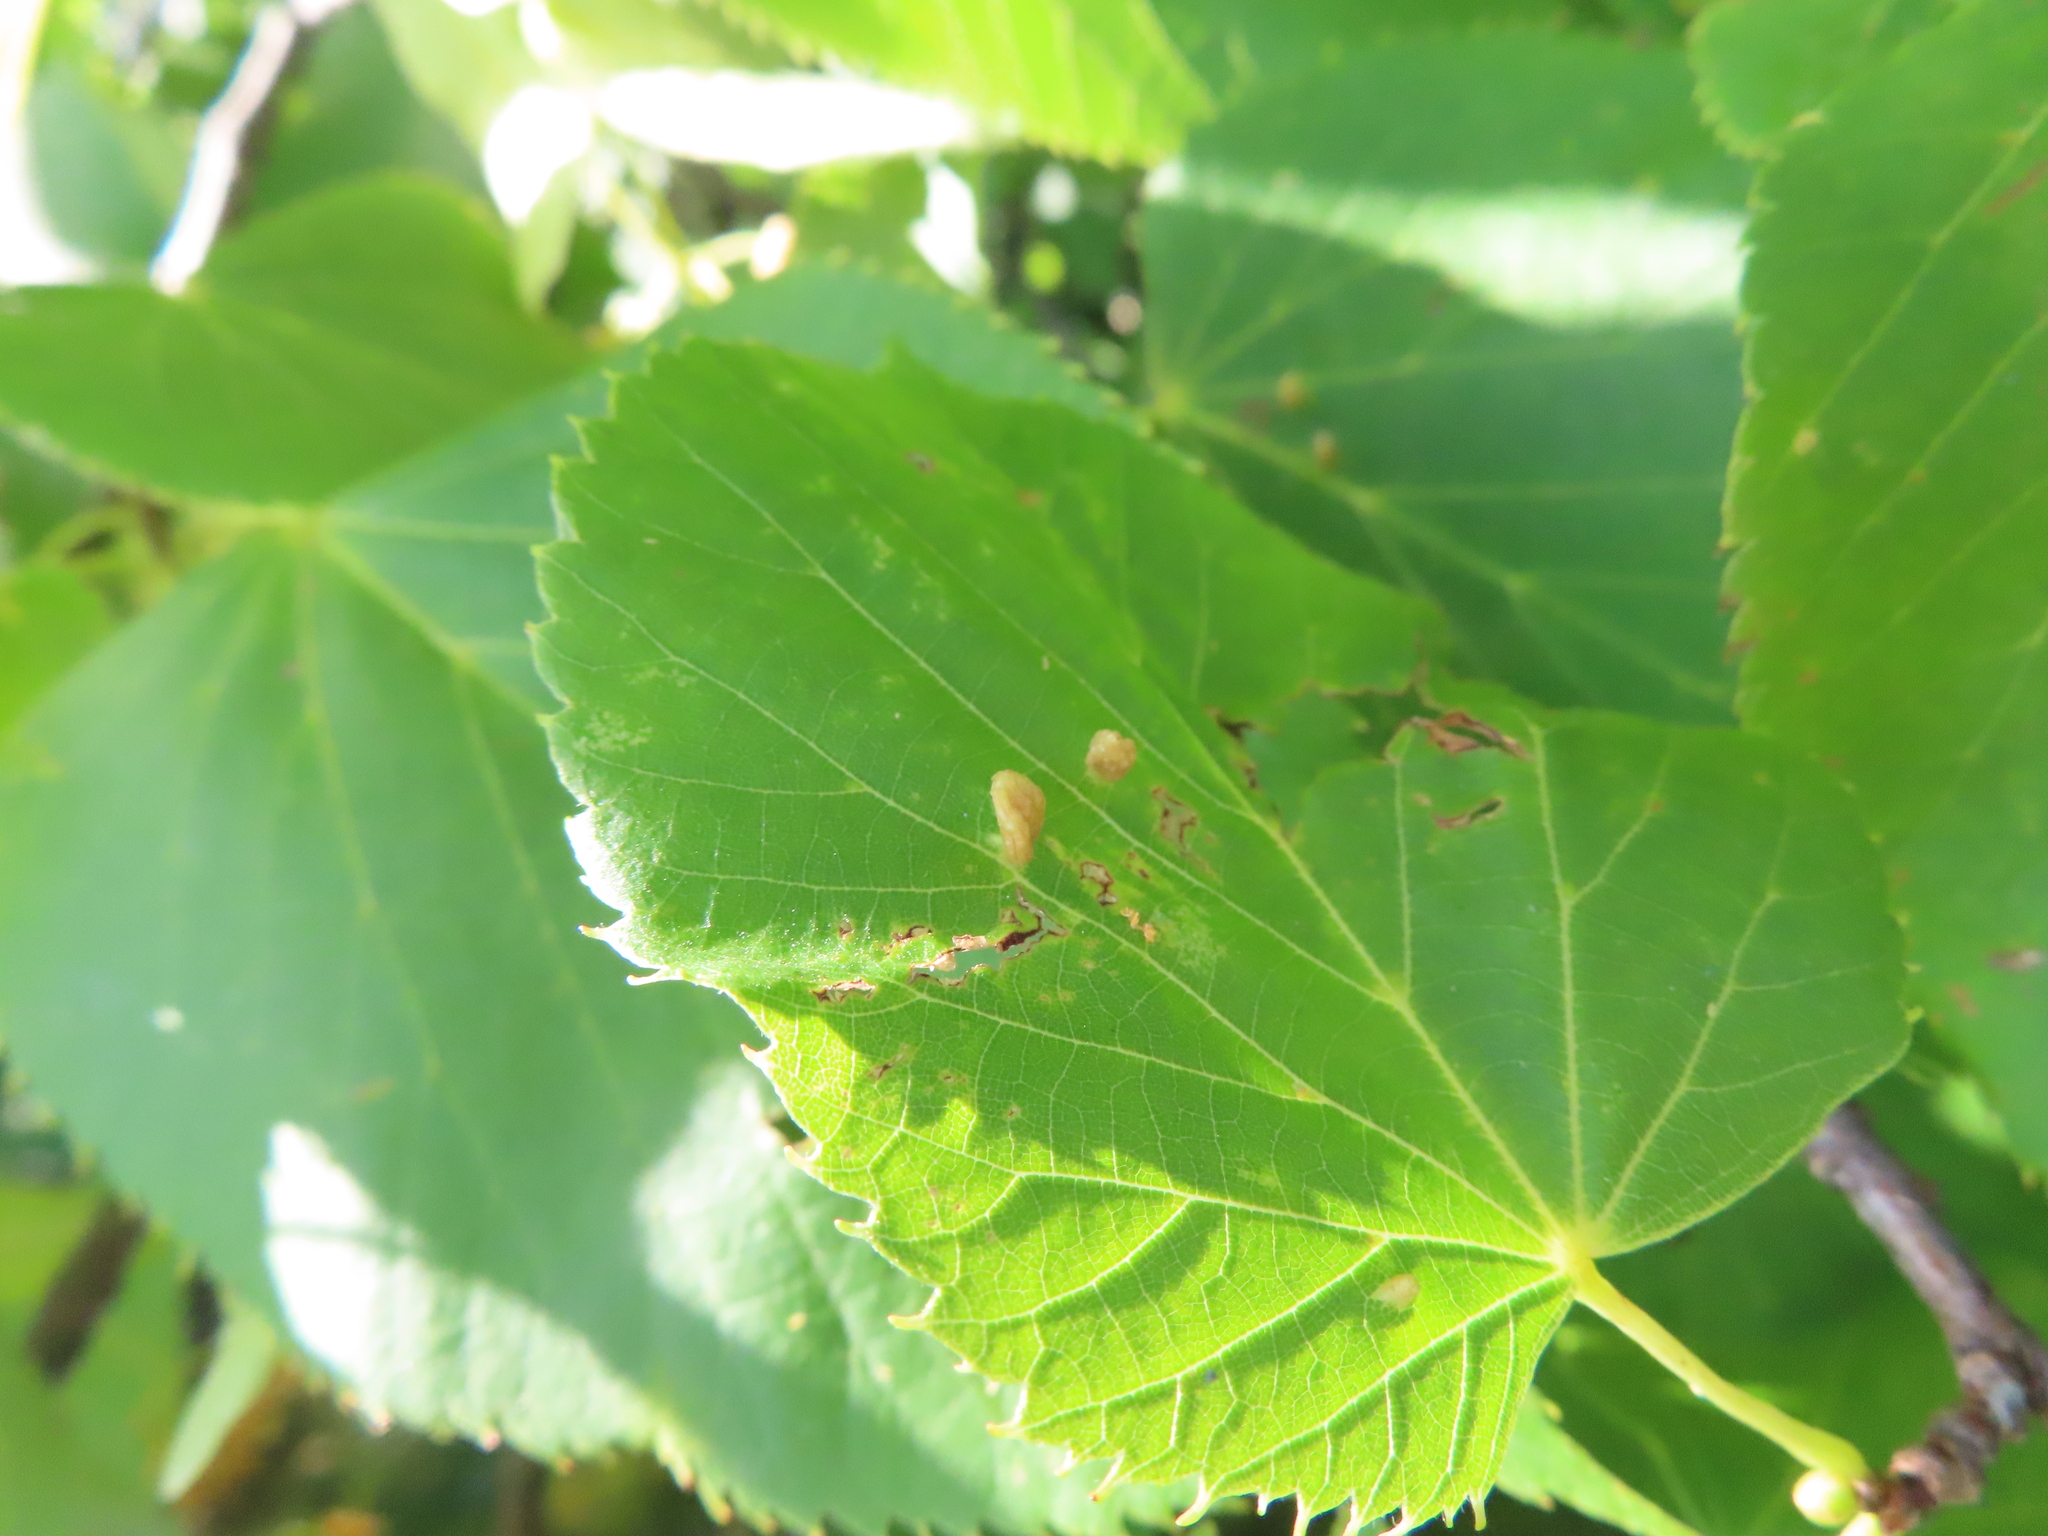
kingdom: Animalia
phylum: Arthropoda
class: Arachnida
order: Trombidiformes
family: Phytoptidae
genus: Phytoptus
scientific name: Phytoptus abnormis
